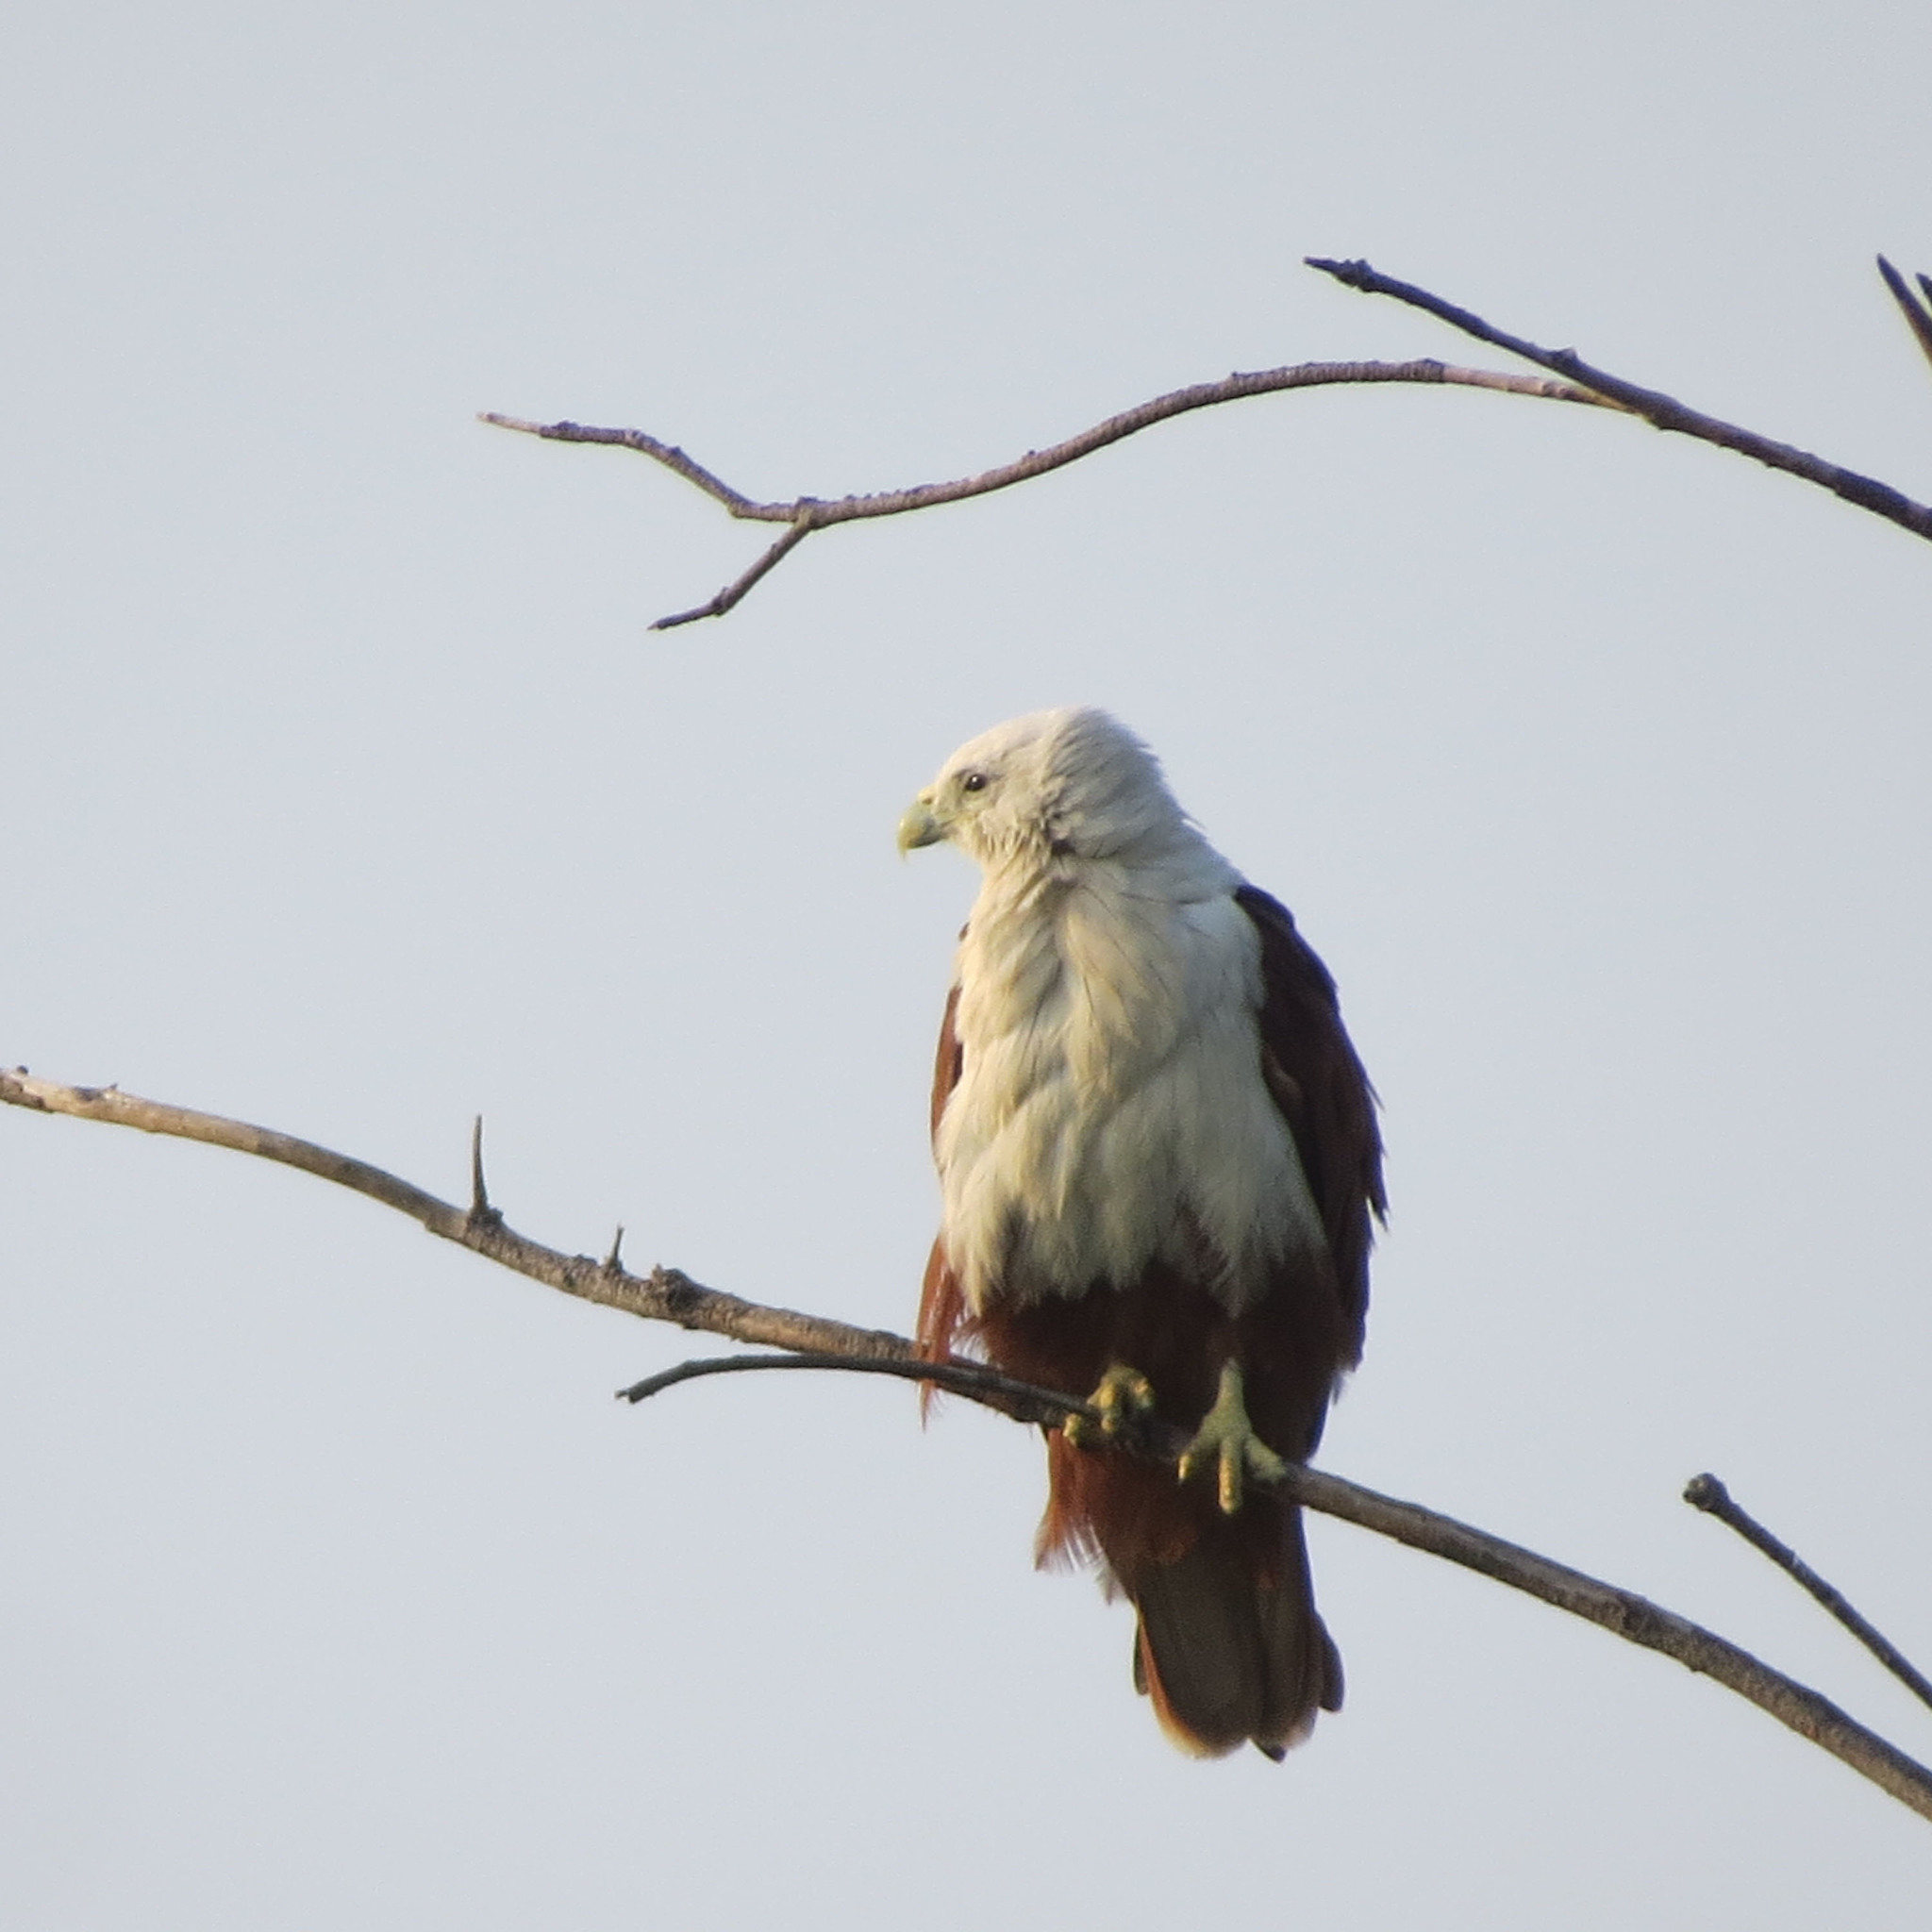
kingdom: Animalia
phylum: Chordata
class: Aves
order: Accipitriformes
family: Accipitridae
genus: Haliastur
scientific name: Haliastur indus
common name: Brahminy kite
